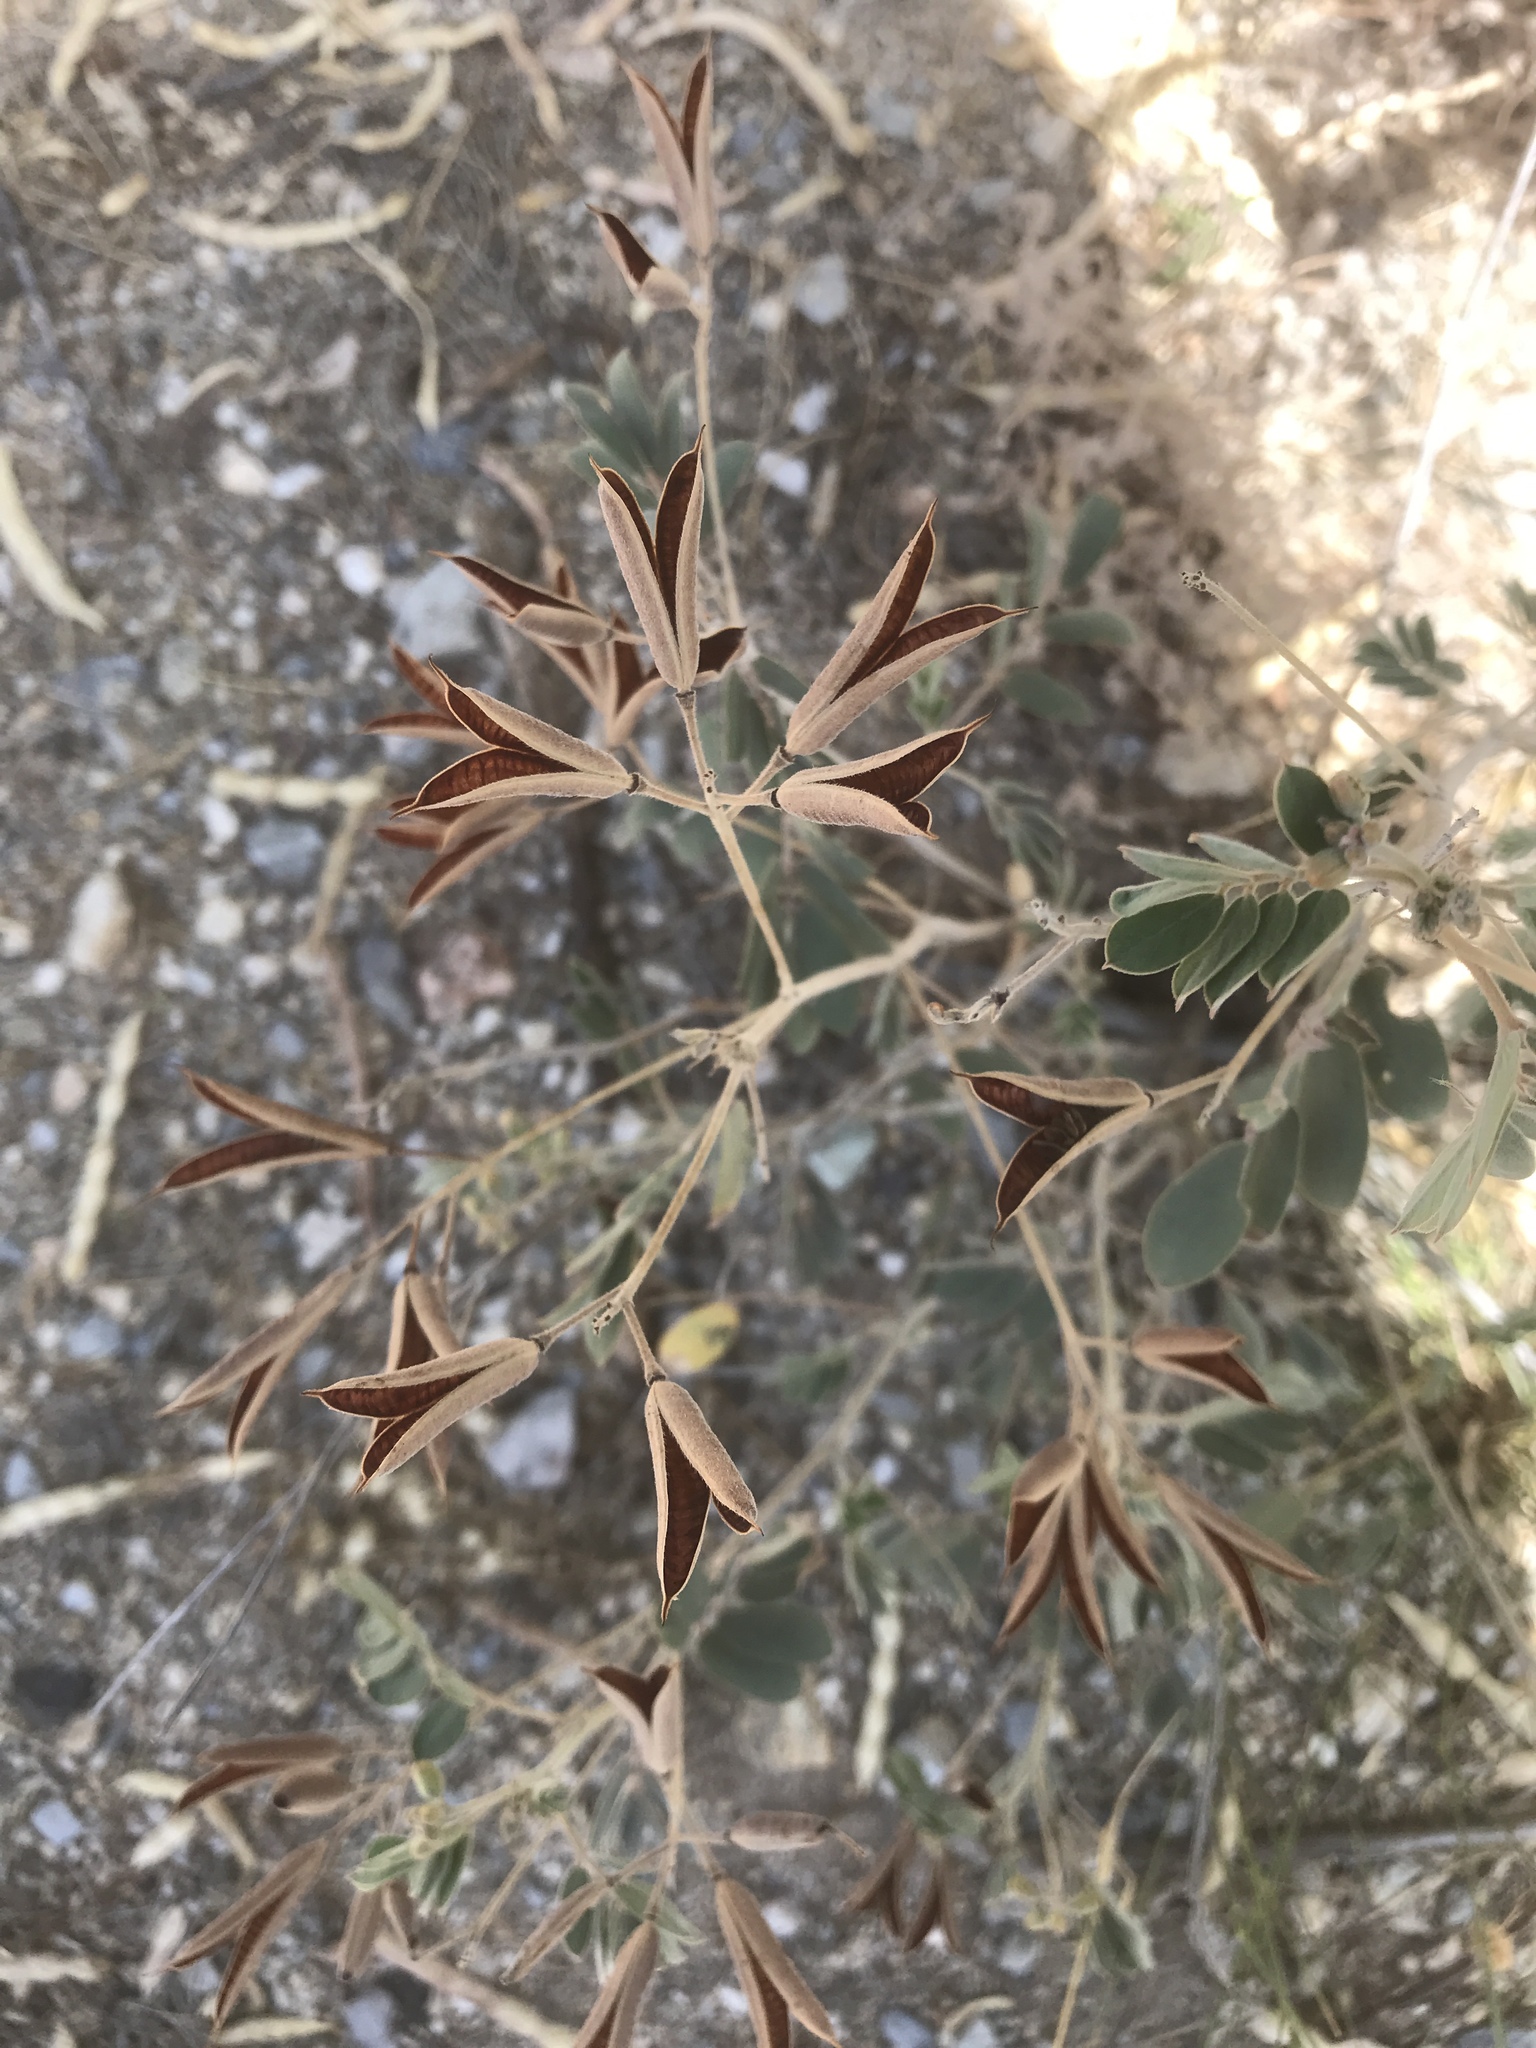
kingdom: Plantae
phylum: Tracheophyta
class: Magnoliopsida
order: Fabales
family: Fabaceae
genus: Senna
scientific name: Senna covesii
